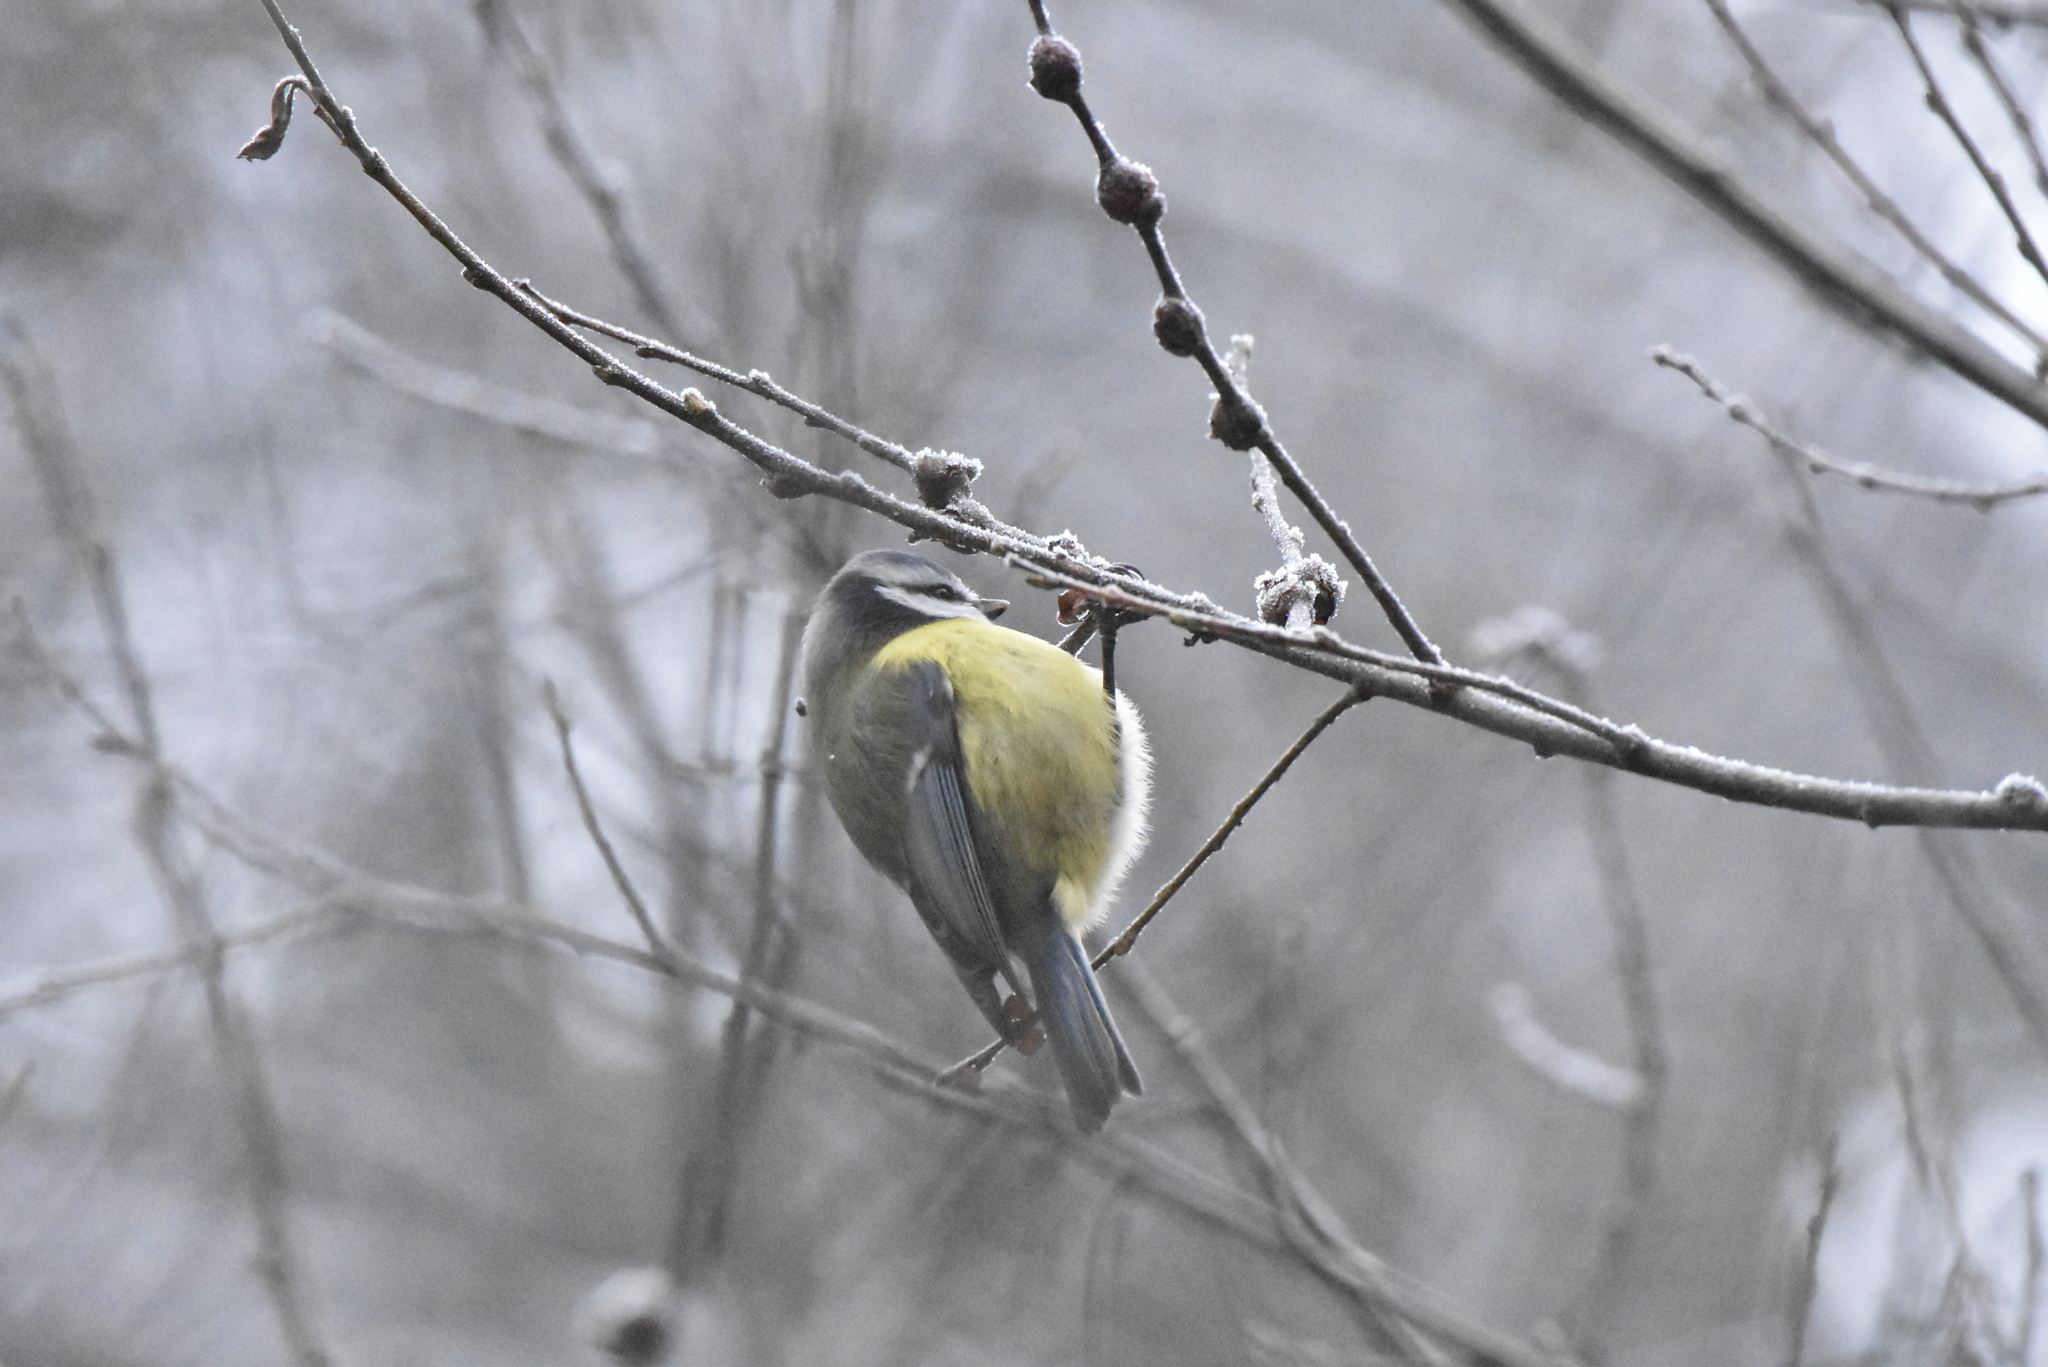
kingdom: Animalia
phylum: Chordata
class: Aves
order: Passeriformes
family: Paridae
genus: Cyanistes
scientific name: Cyanistes caeruleus
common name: Eurasian blue tit
